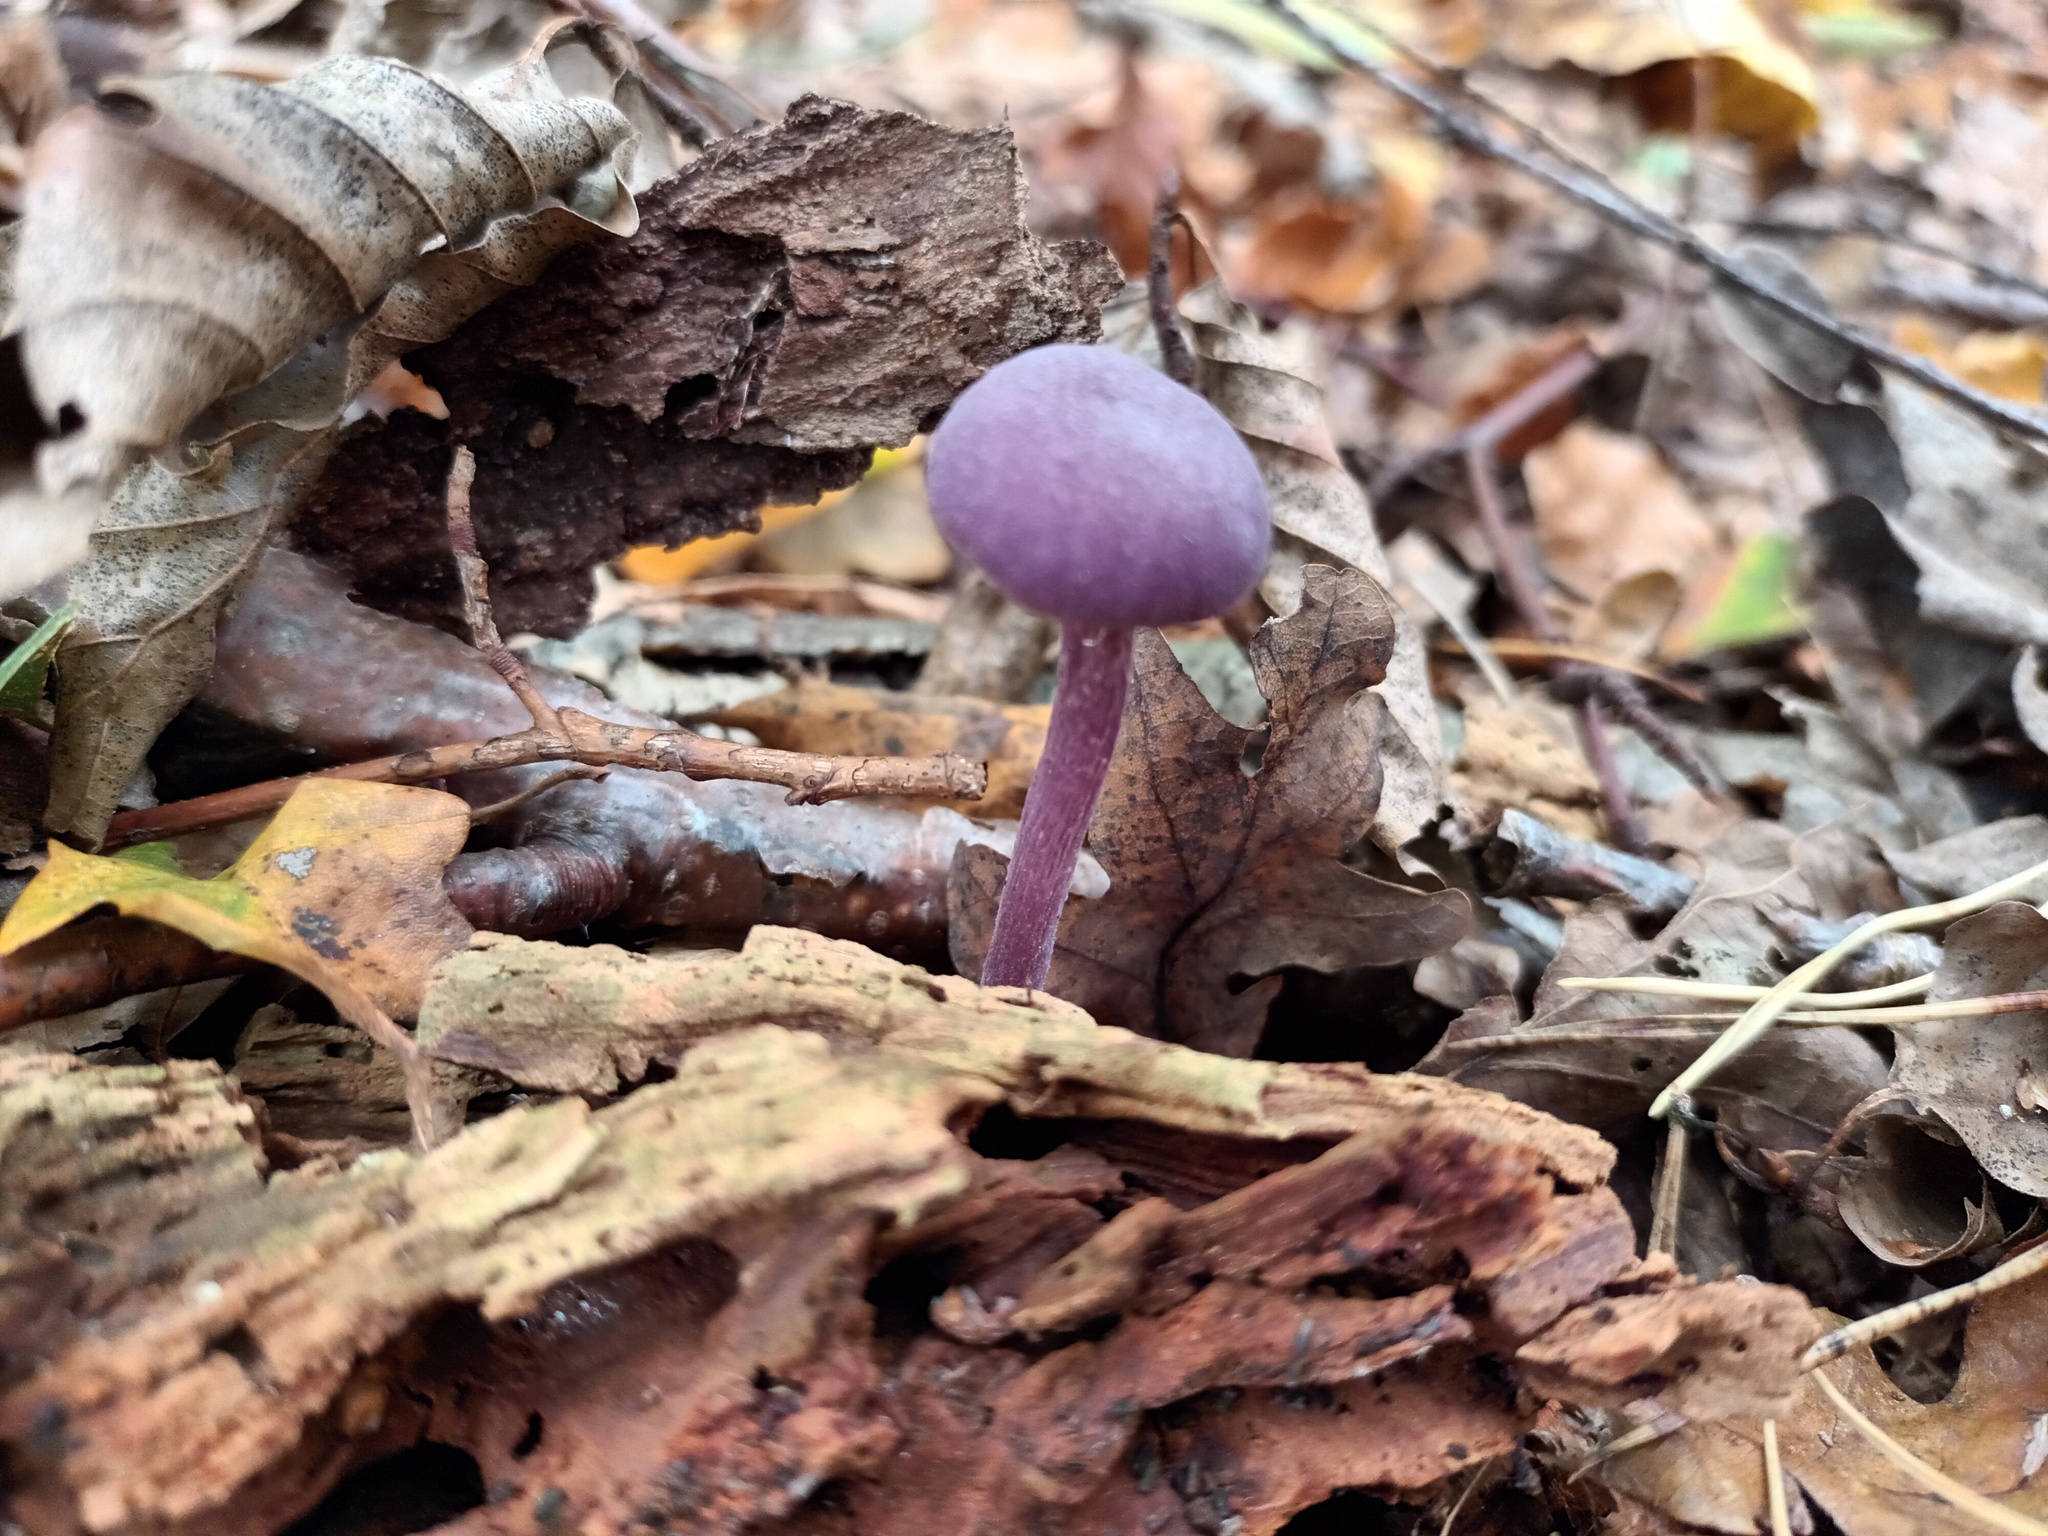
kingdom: Fungi
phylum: Basidiomycota
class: Agaricomycetes
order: Agaricales
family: Hydnangiaceae
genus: Laccaria
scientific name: Laccaria amethystina
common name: Amethyst deceiver
